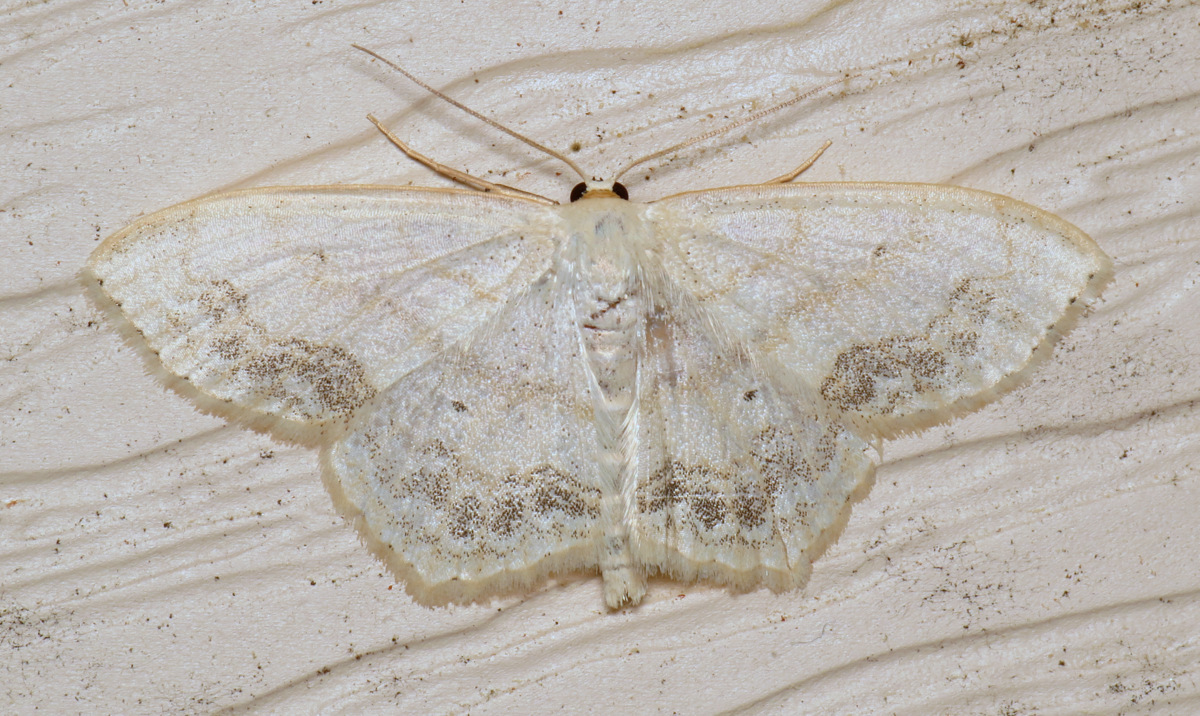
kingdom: Animalia
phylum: Arthropoda
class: Insecta
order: Lepidoptera
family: Geometridae
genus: Scopula
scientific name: Scopula limboundata
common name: Large lace border
